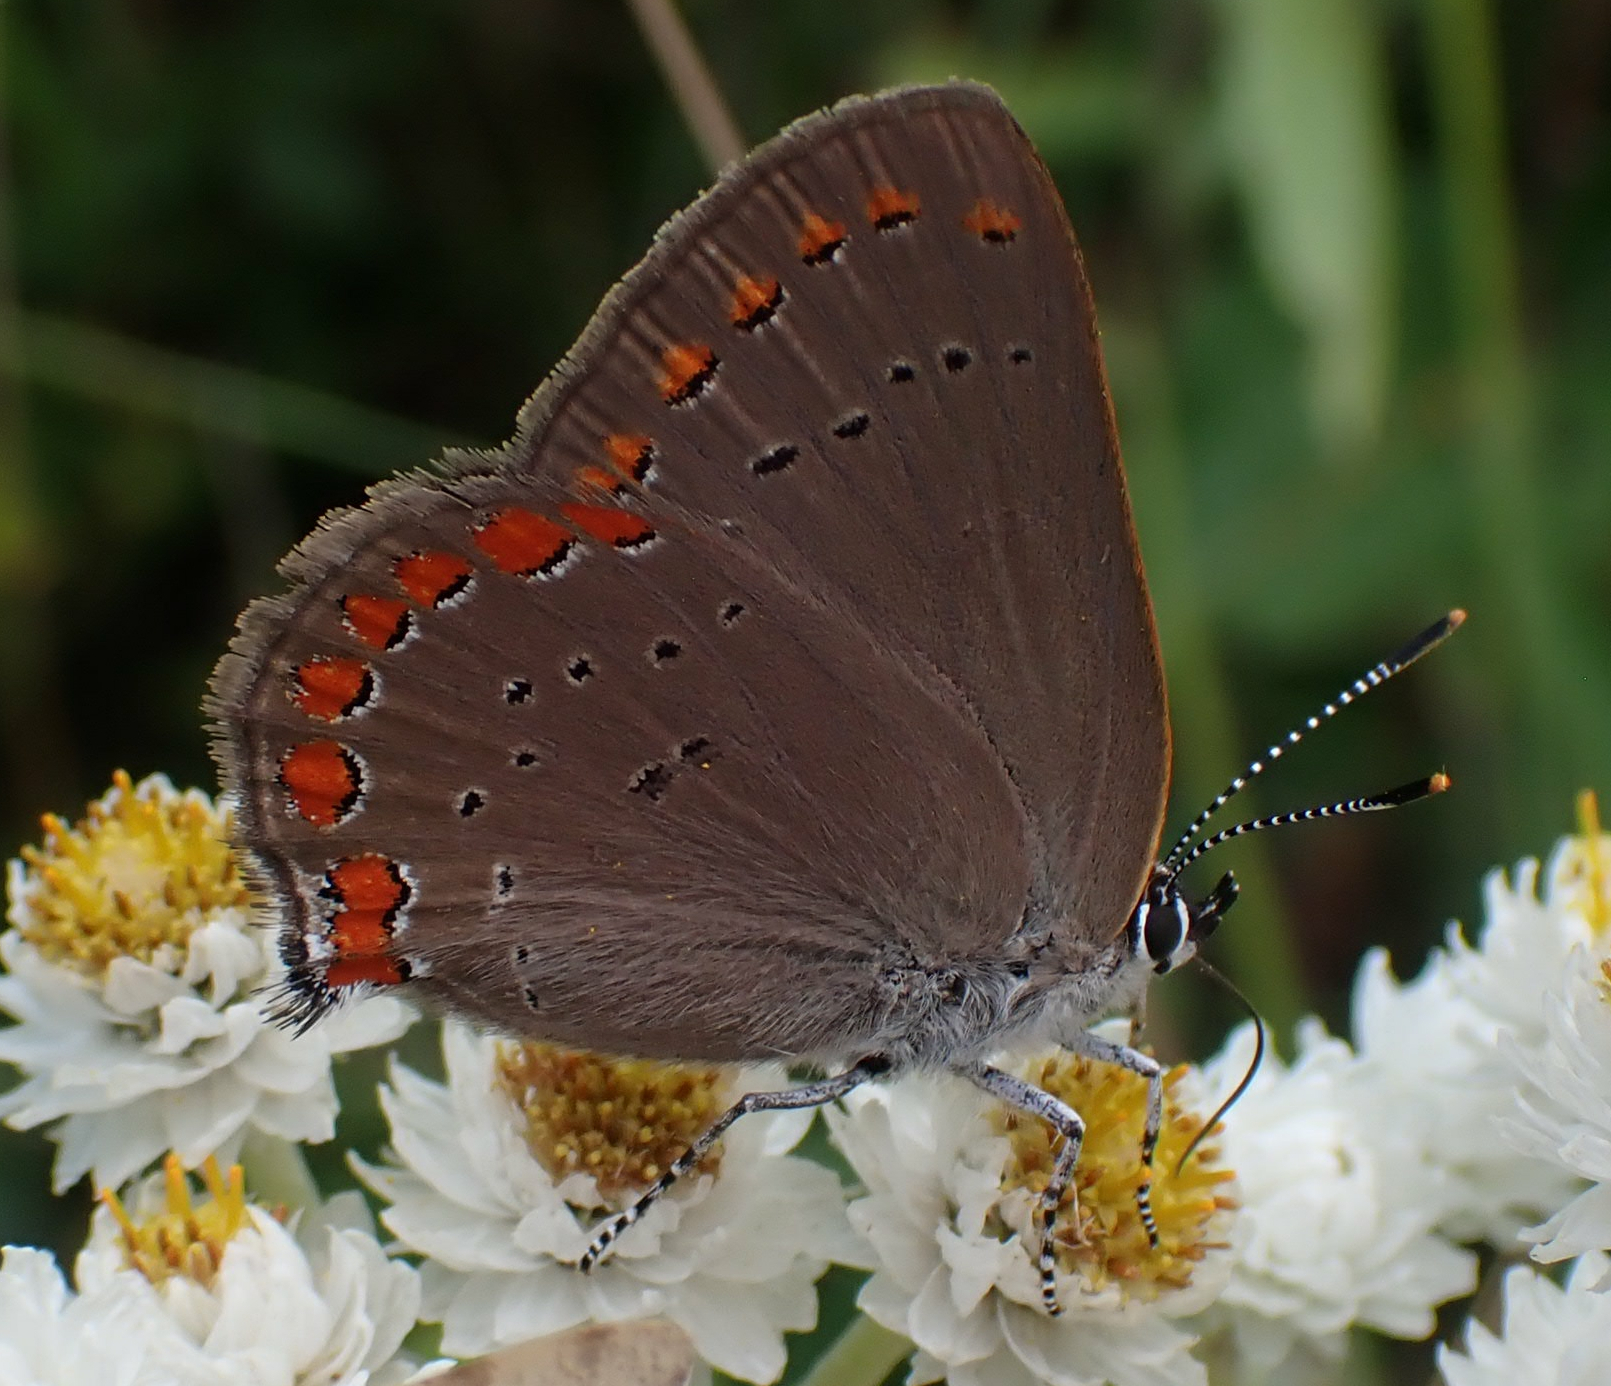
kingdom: Animalia
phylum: Arthropoda
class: Insecta
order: Lepidoptera
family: Lycaenidae
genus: Harkenclenus
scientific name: Harkenclenus titus
